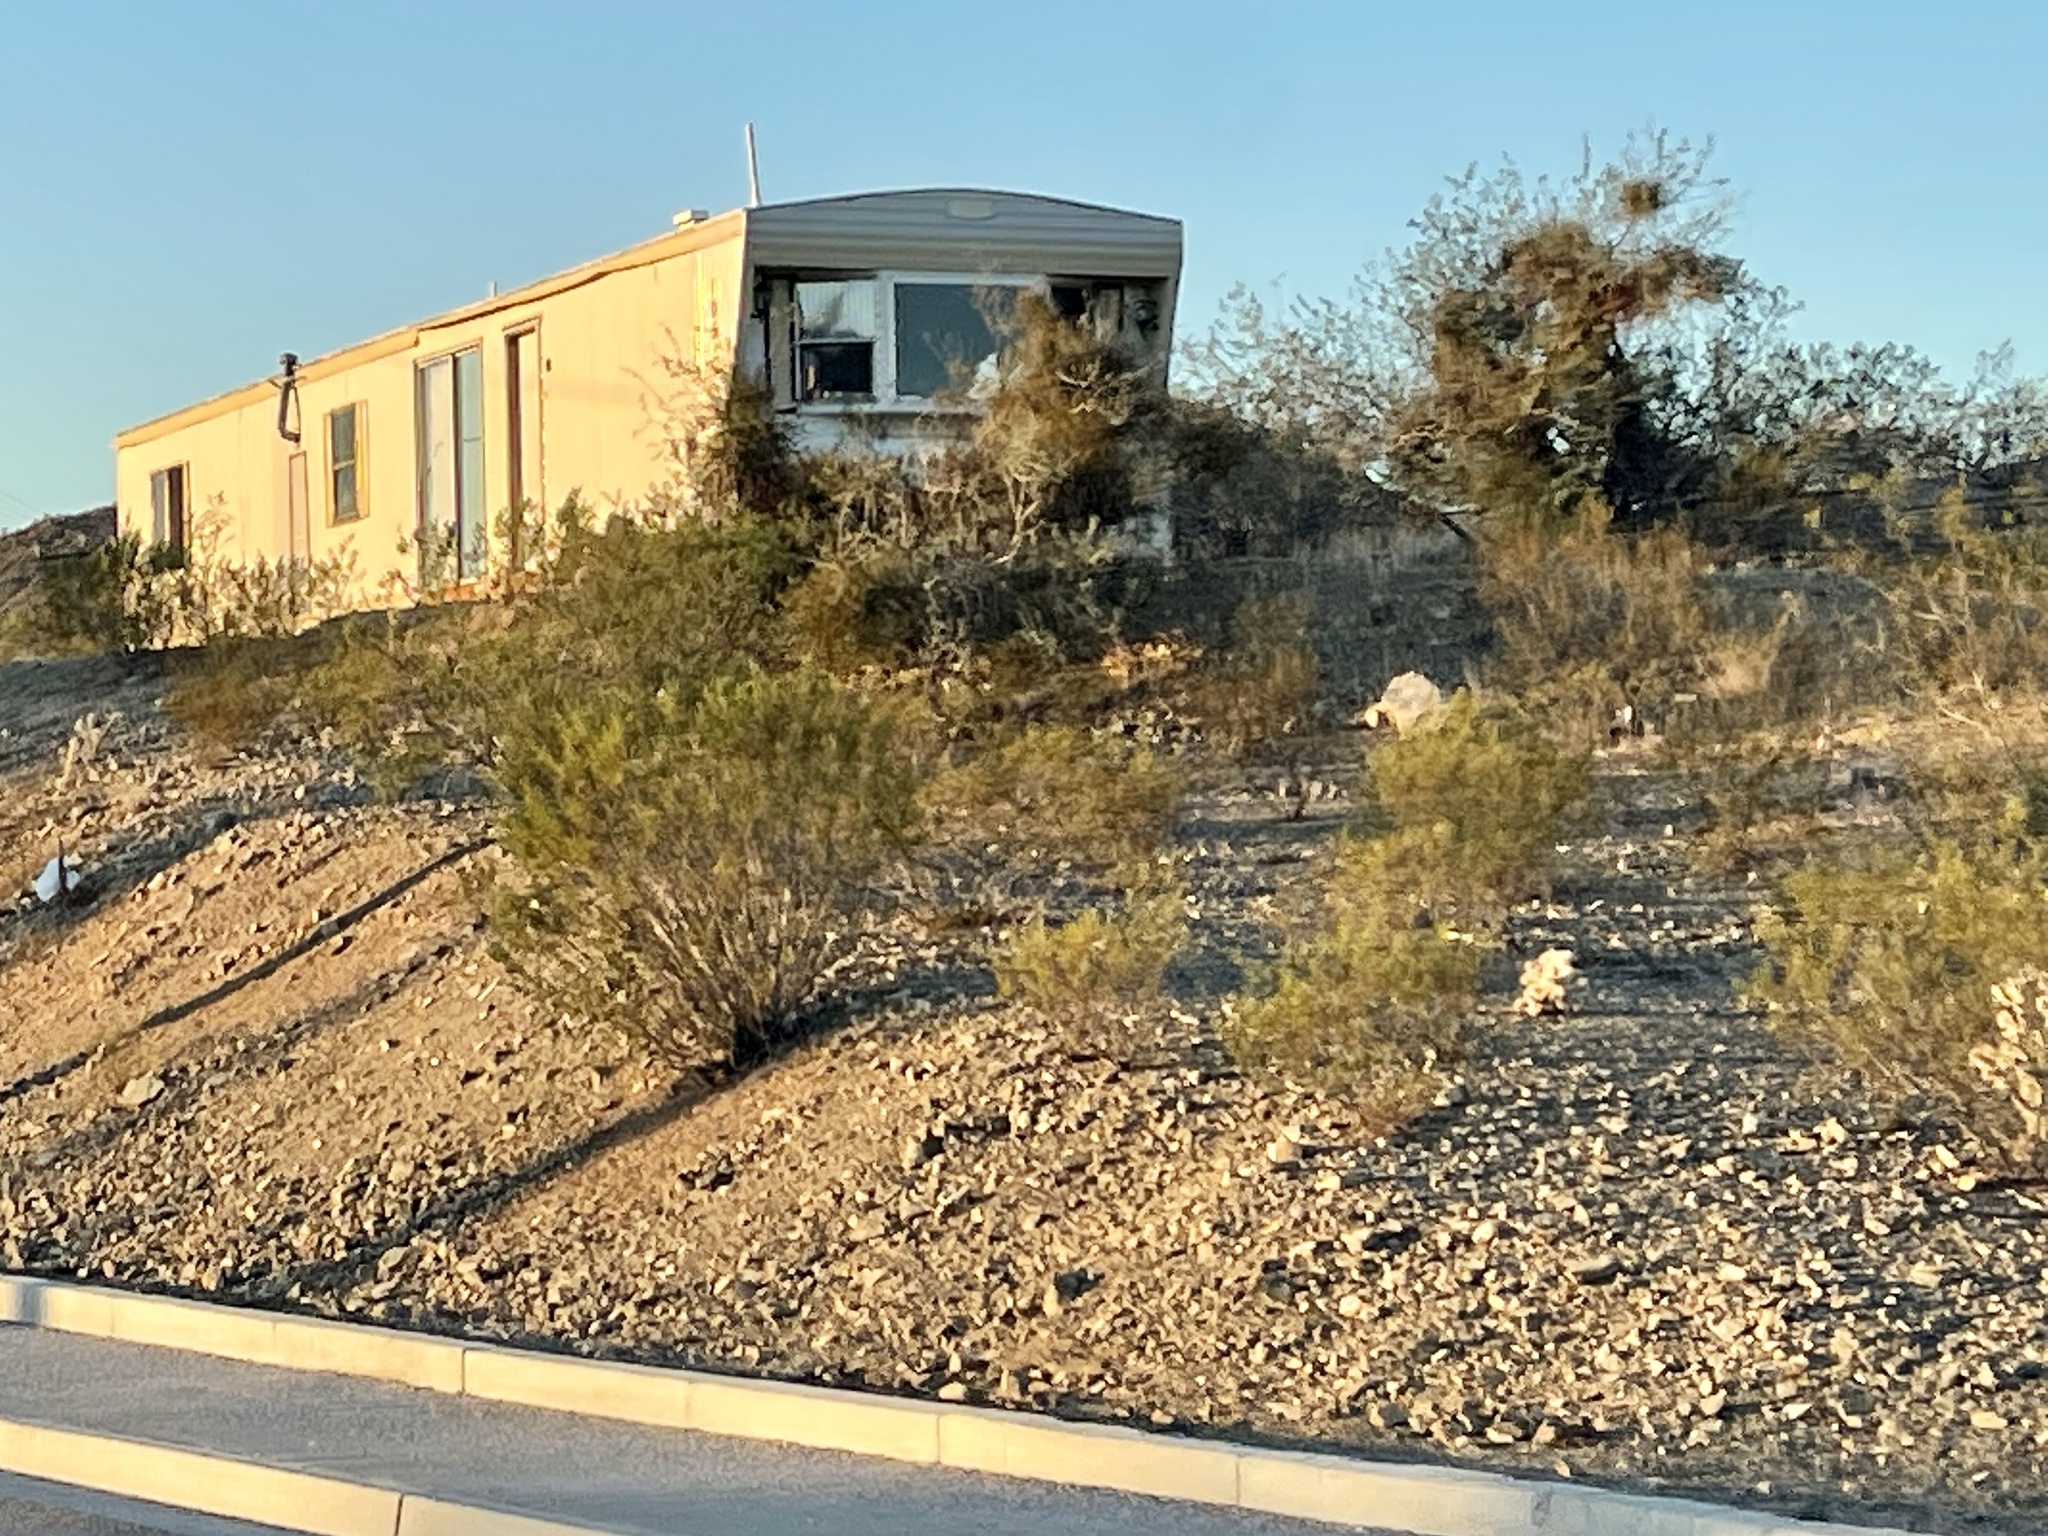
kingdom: Plantae
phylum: Tracheophyta
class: Magnoliopsida
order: Zygophyllales
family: Zygophyllaceae
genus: Larrea
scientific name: Larrea tridentata
